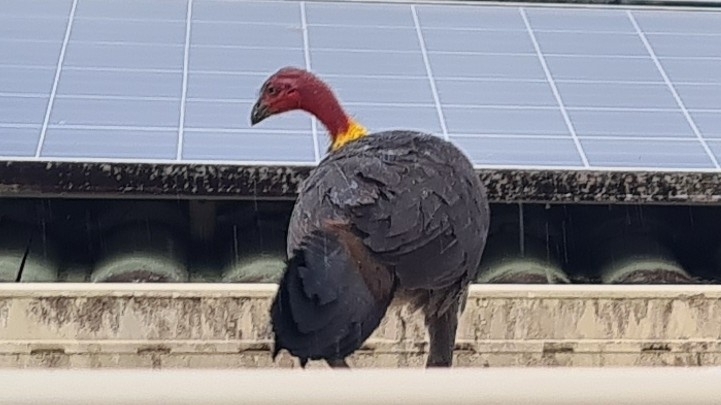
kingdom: Animalia
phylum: Chordata
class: Aves
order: Galliformes
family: Megapodiidae
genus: Alectura
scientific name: Alectura lathami
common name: Australian brushturkey
